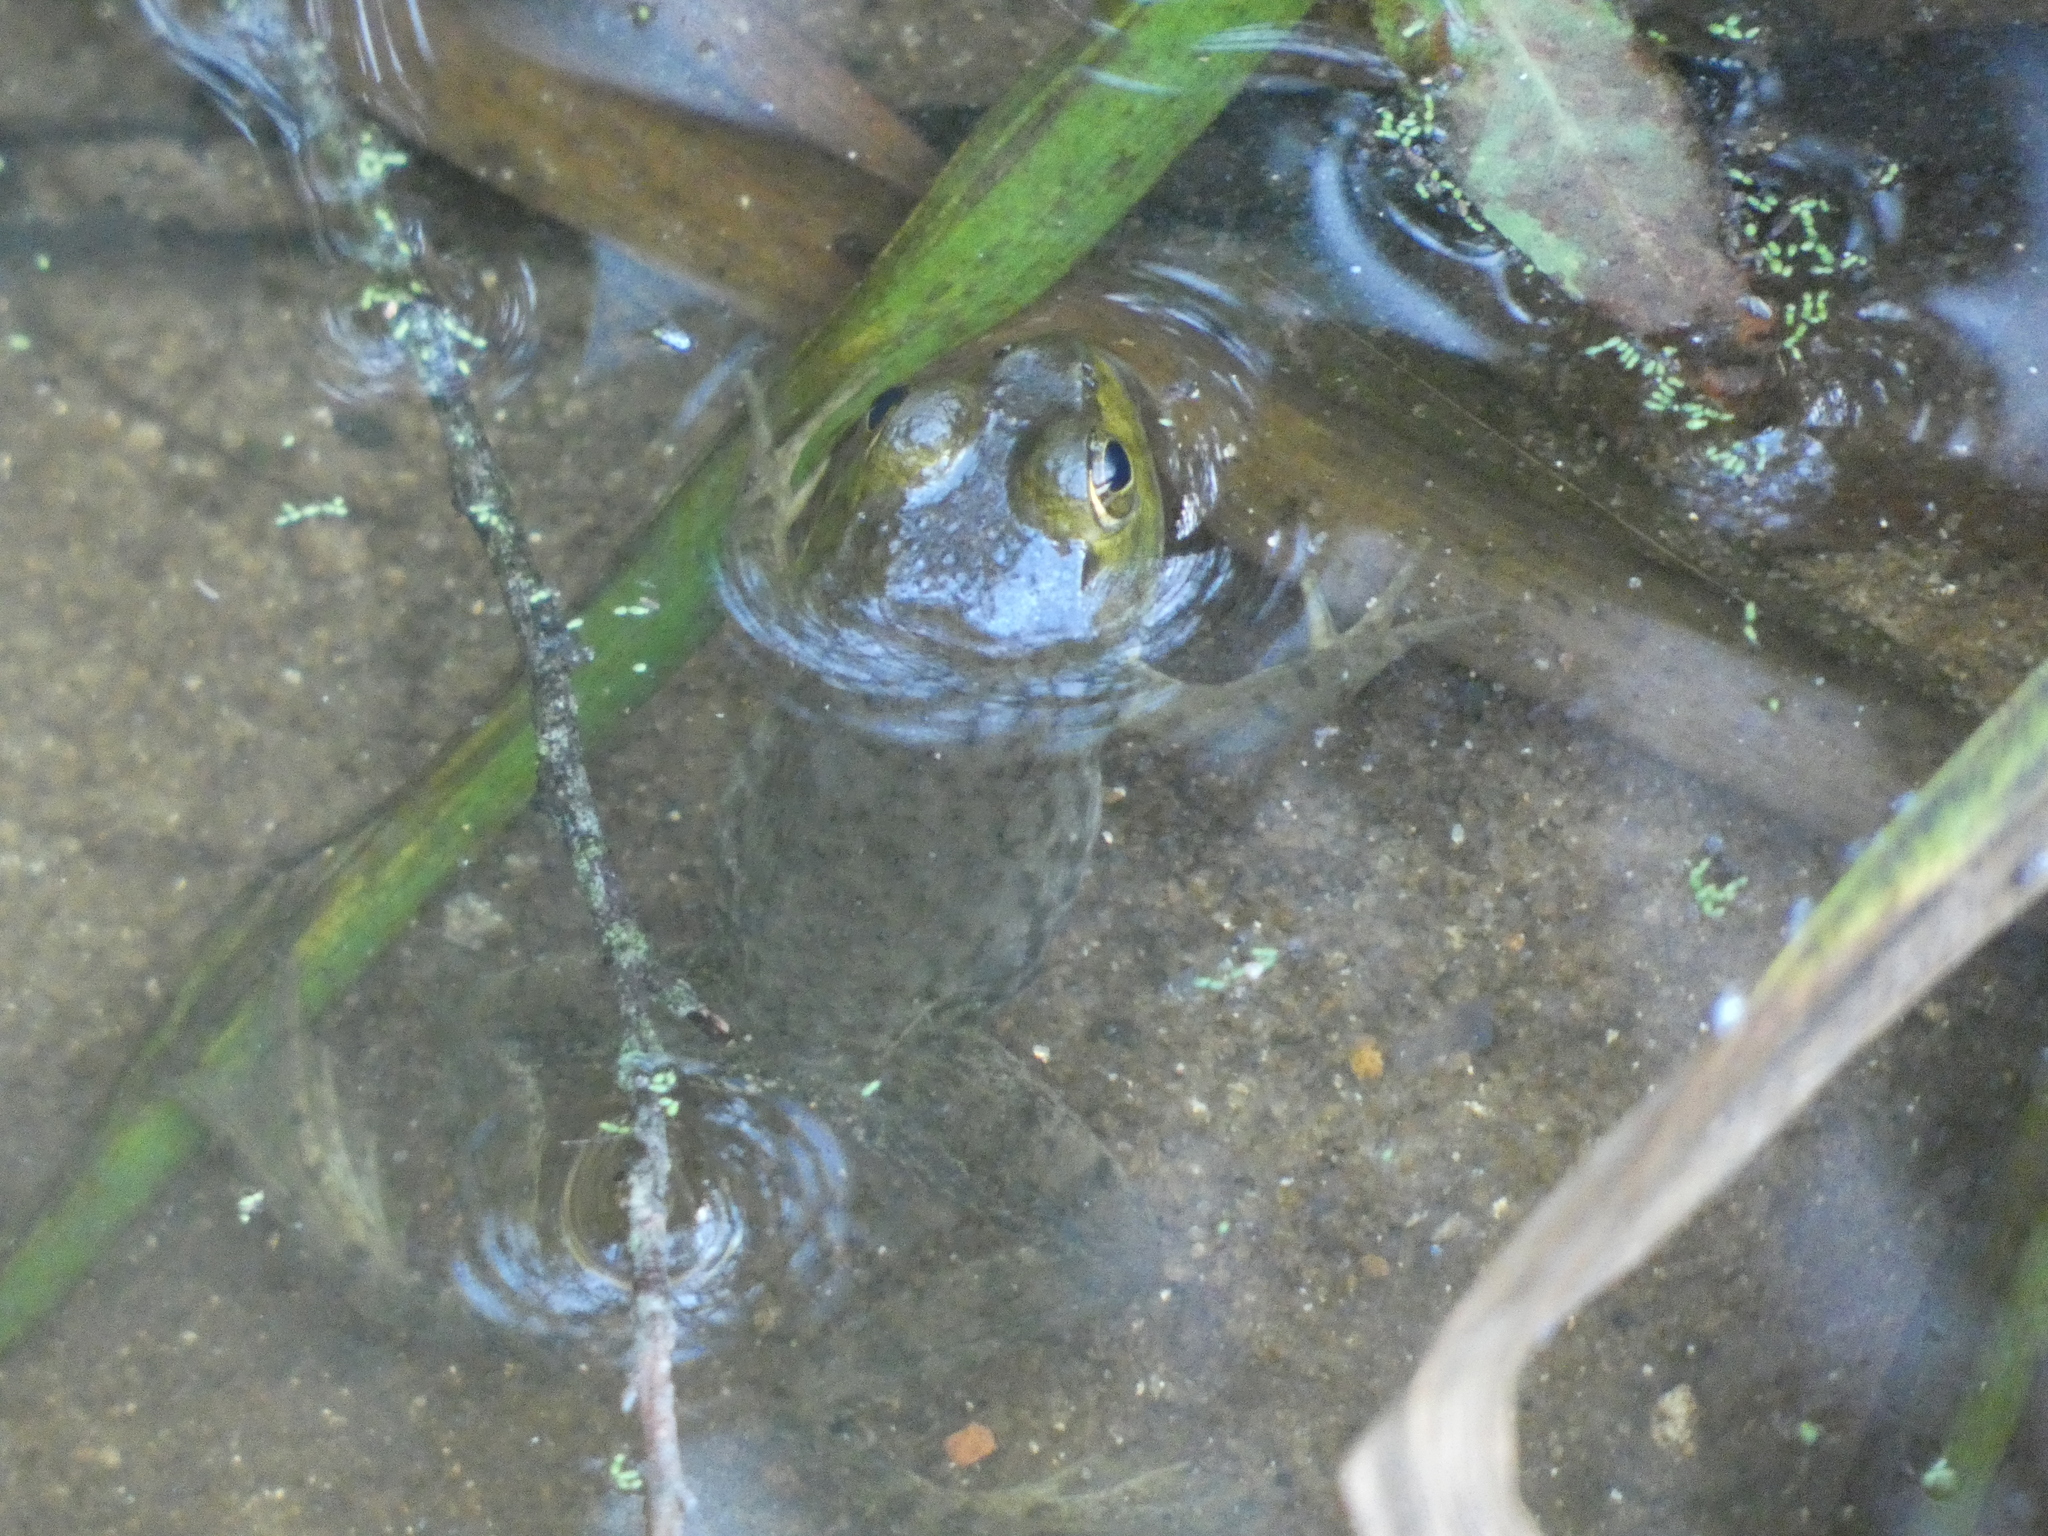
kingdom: Animalia
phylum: Chordata
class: Amphibia
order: Anura
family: Ranidae
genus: Lithobates
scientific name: Lithobates catesbeianus
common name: American bullfrog
